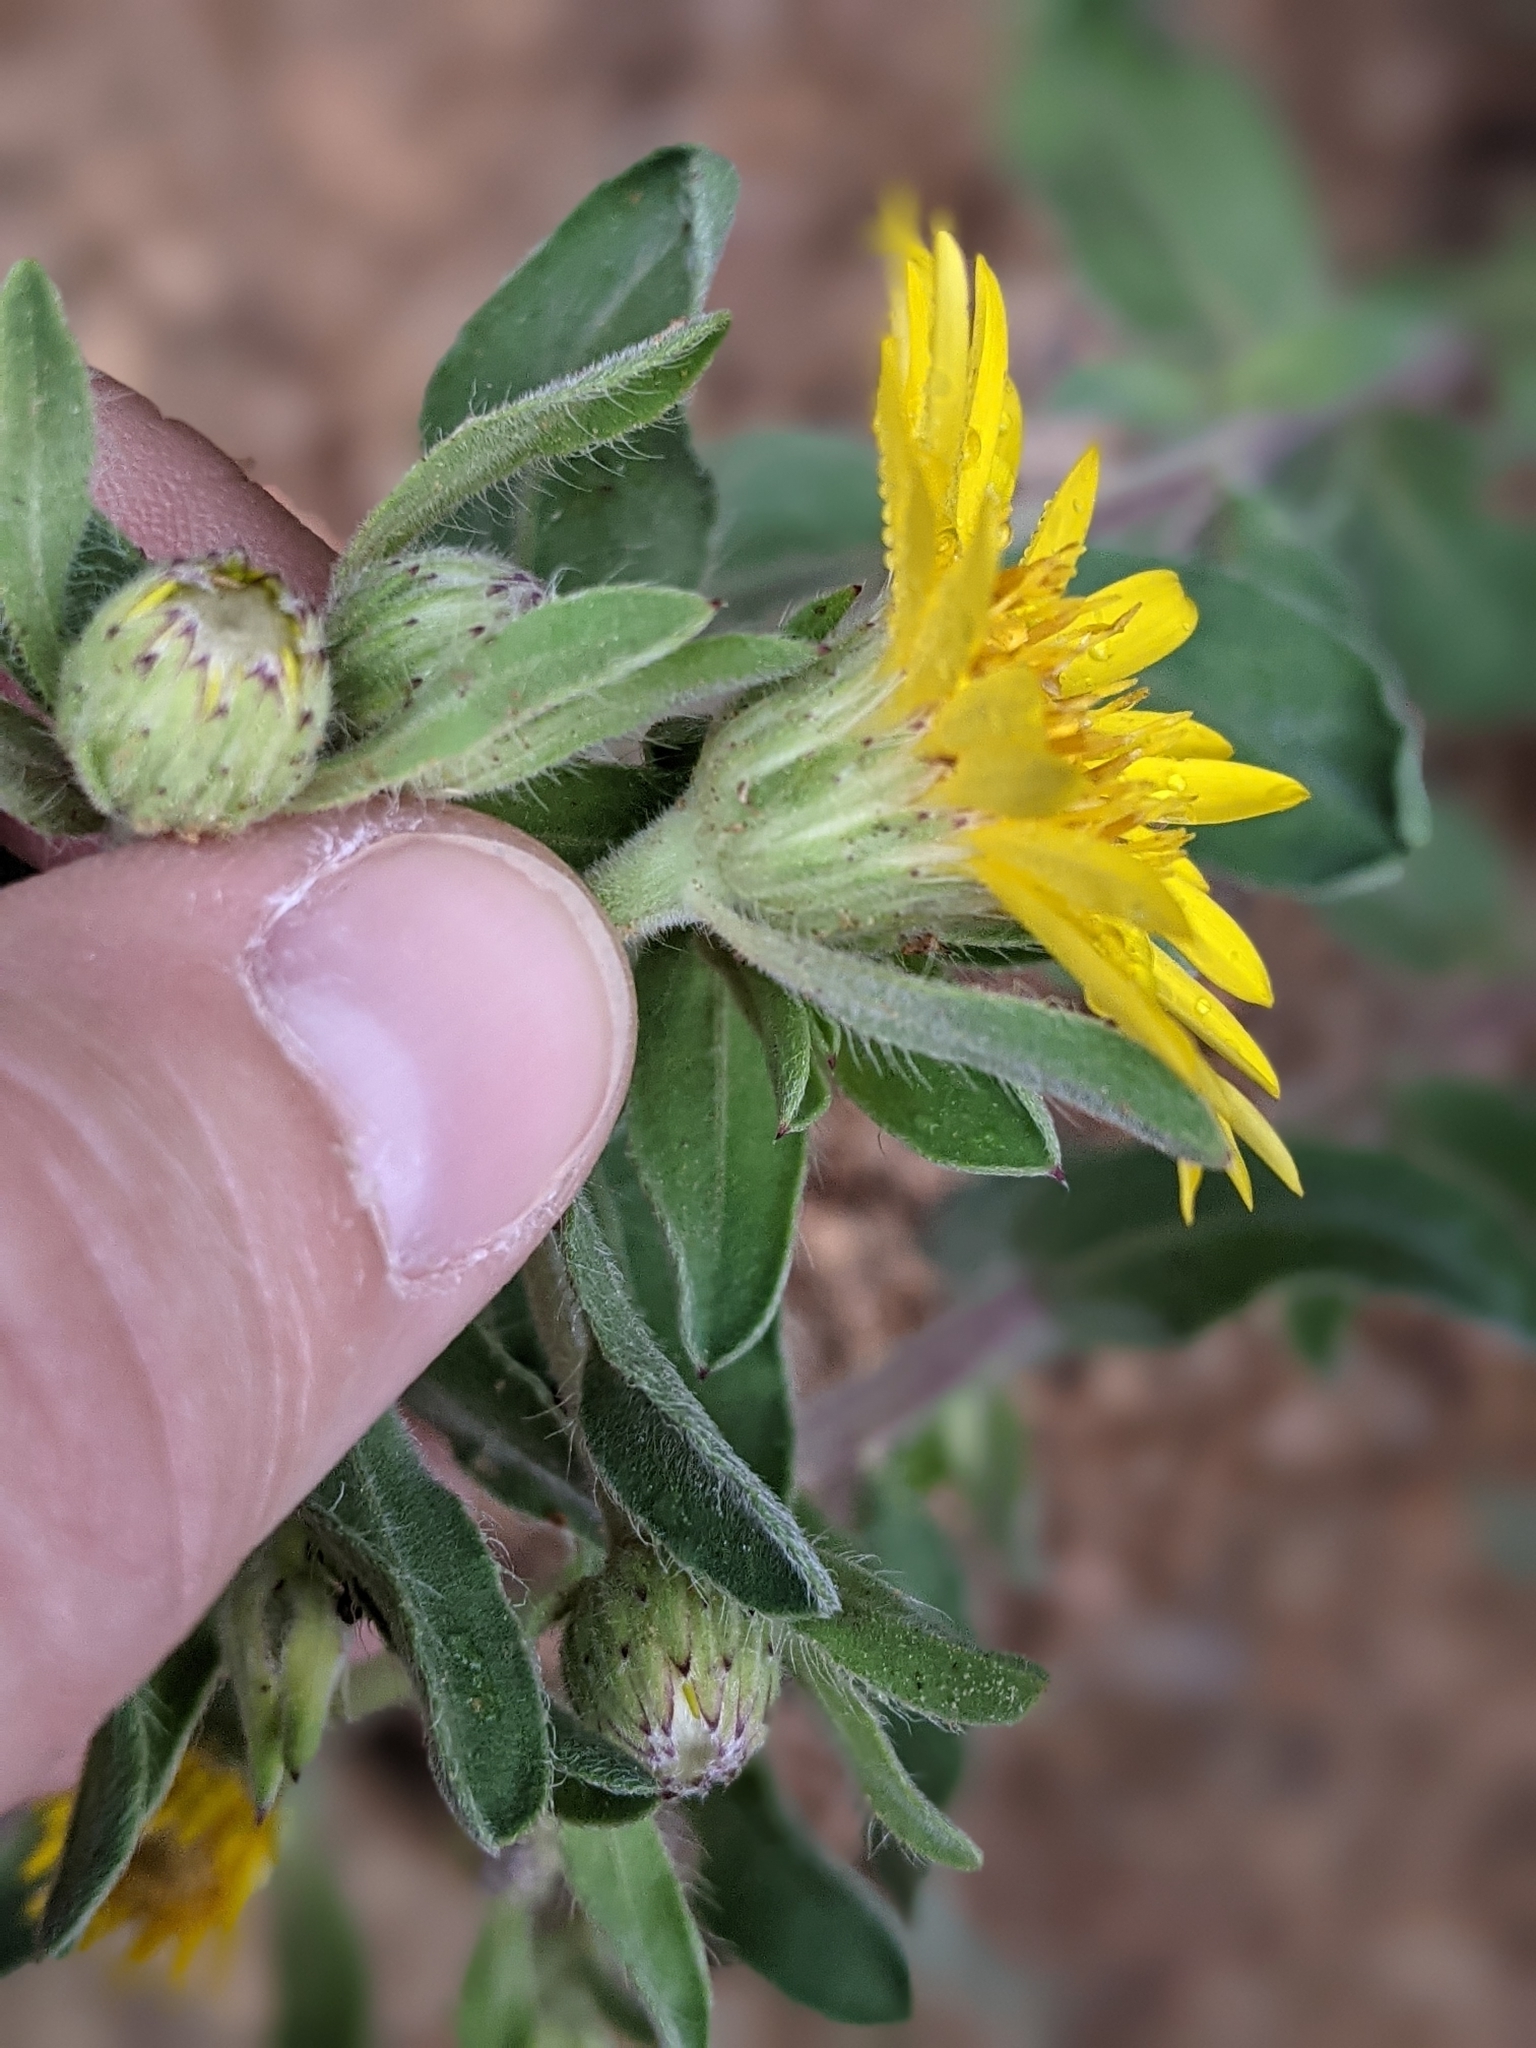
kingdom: Plantae
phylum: Tracheophyta
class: Magnoliopsida
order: Asterales
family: Asteraceae
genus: Heterotheca
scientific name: Heterotheca resinolens
